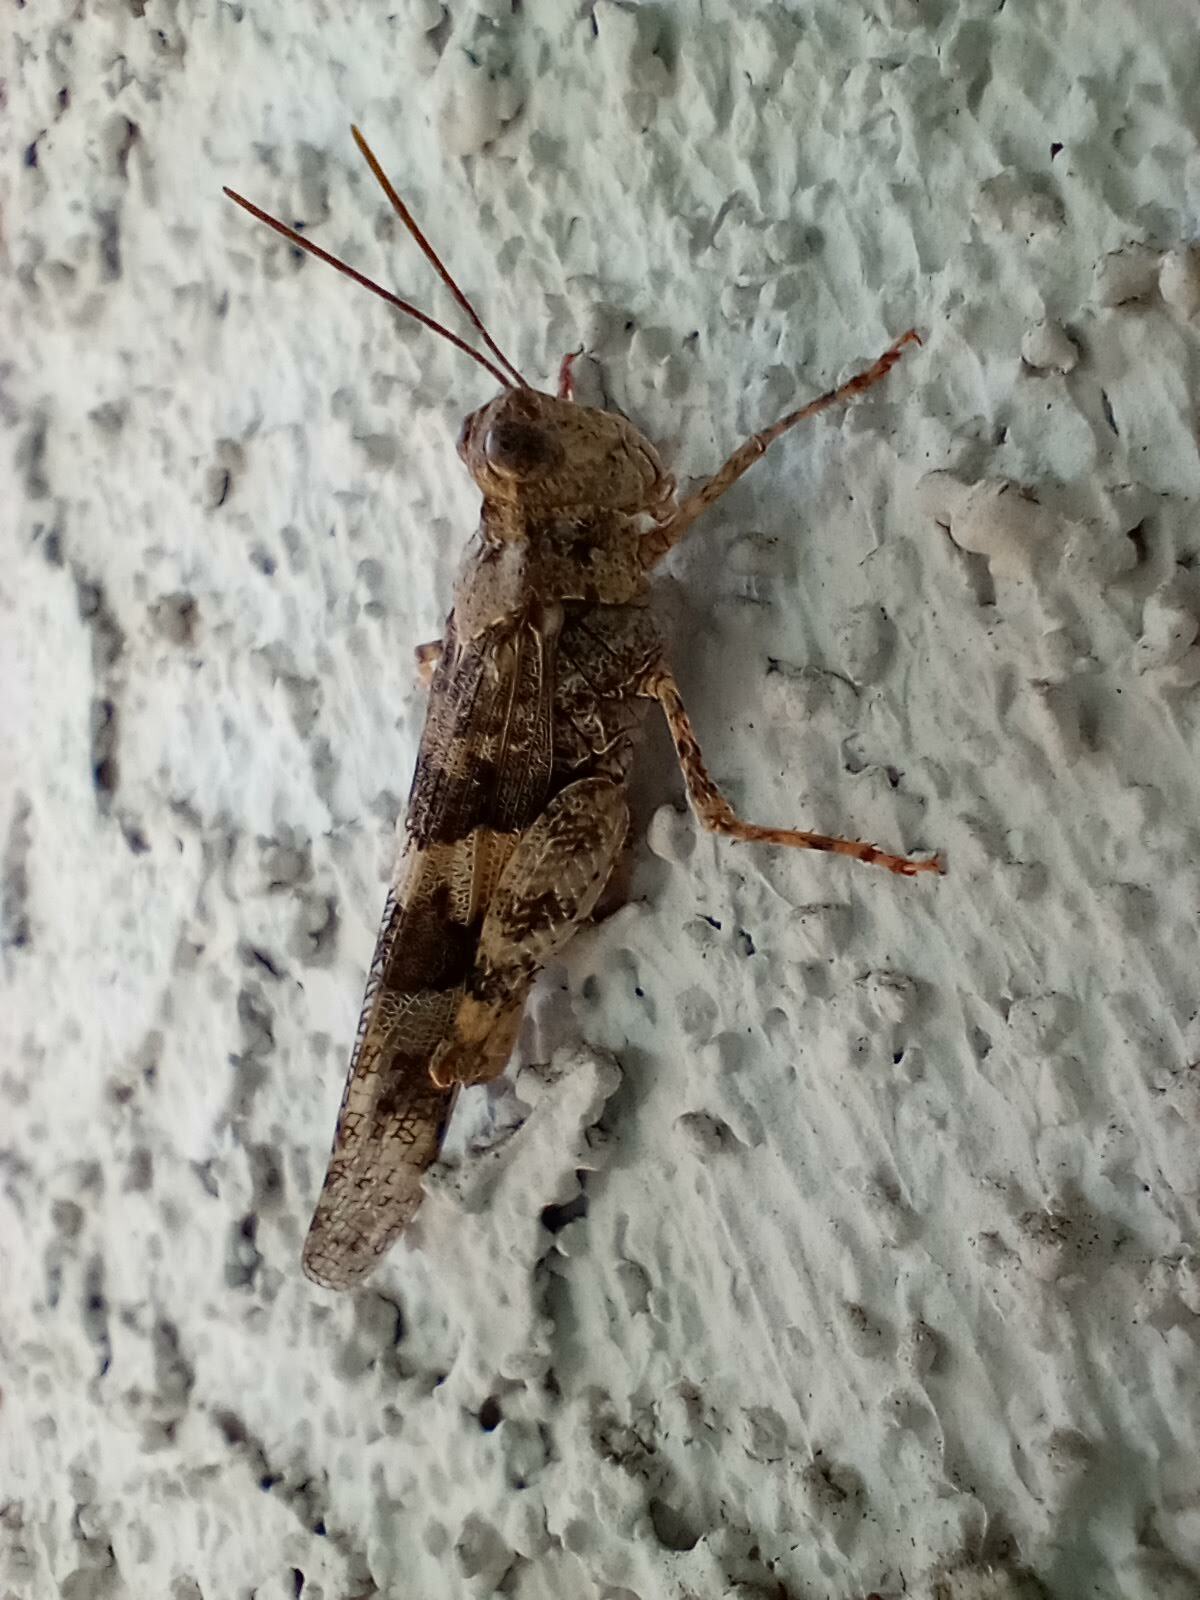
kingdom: Animalia
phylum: Arthropoda
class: Insecta
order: Orthoptera
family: Acrididae
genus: Trimerotropis
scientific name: Trimerotropis pallidipennis
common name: Pallid-winged grasshopper
